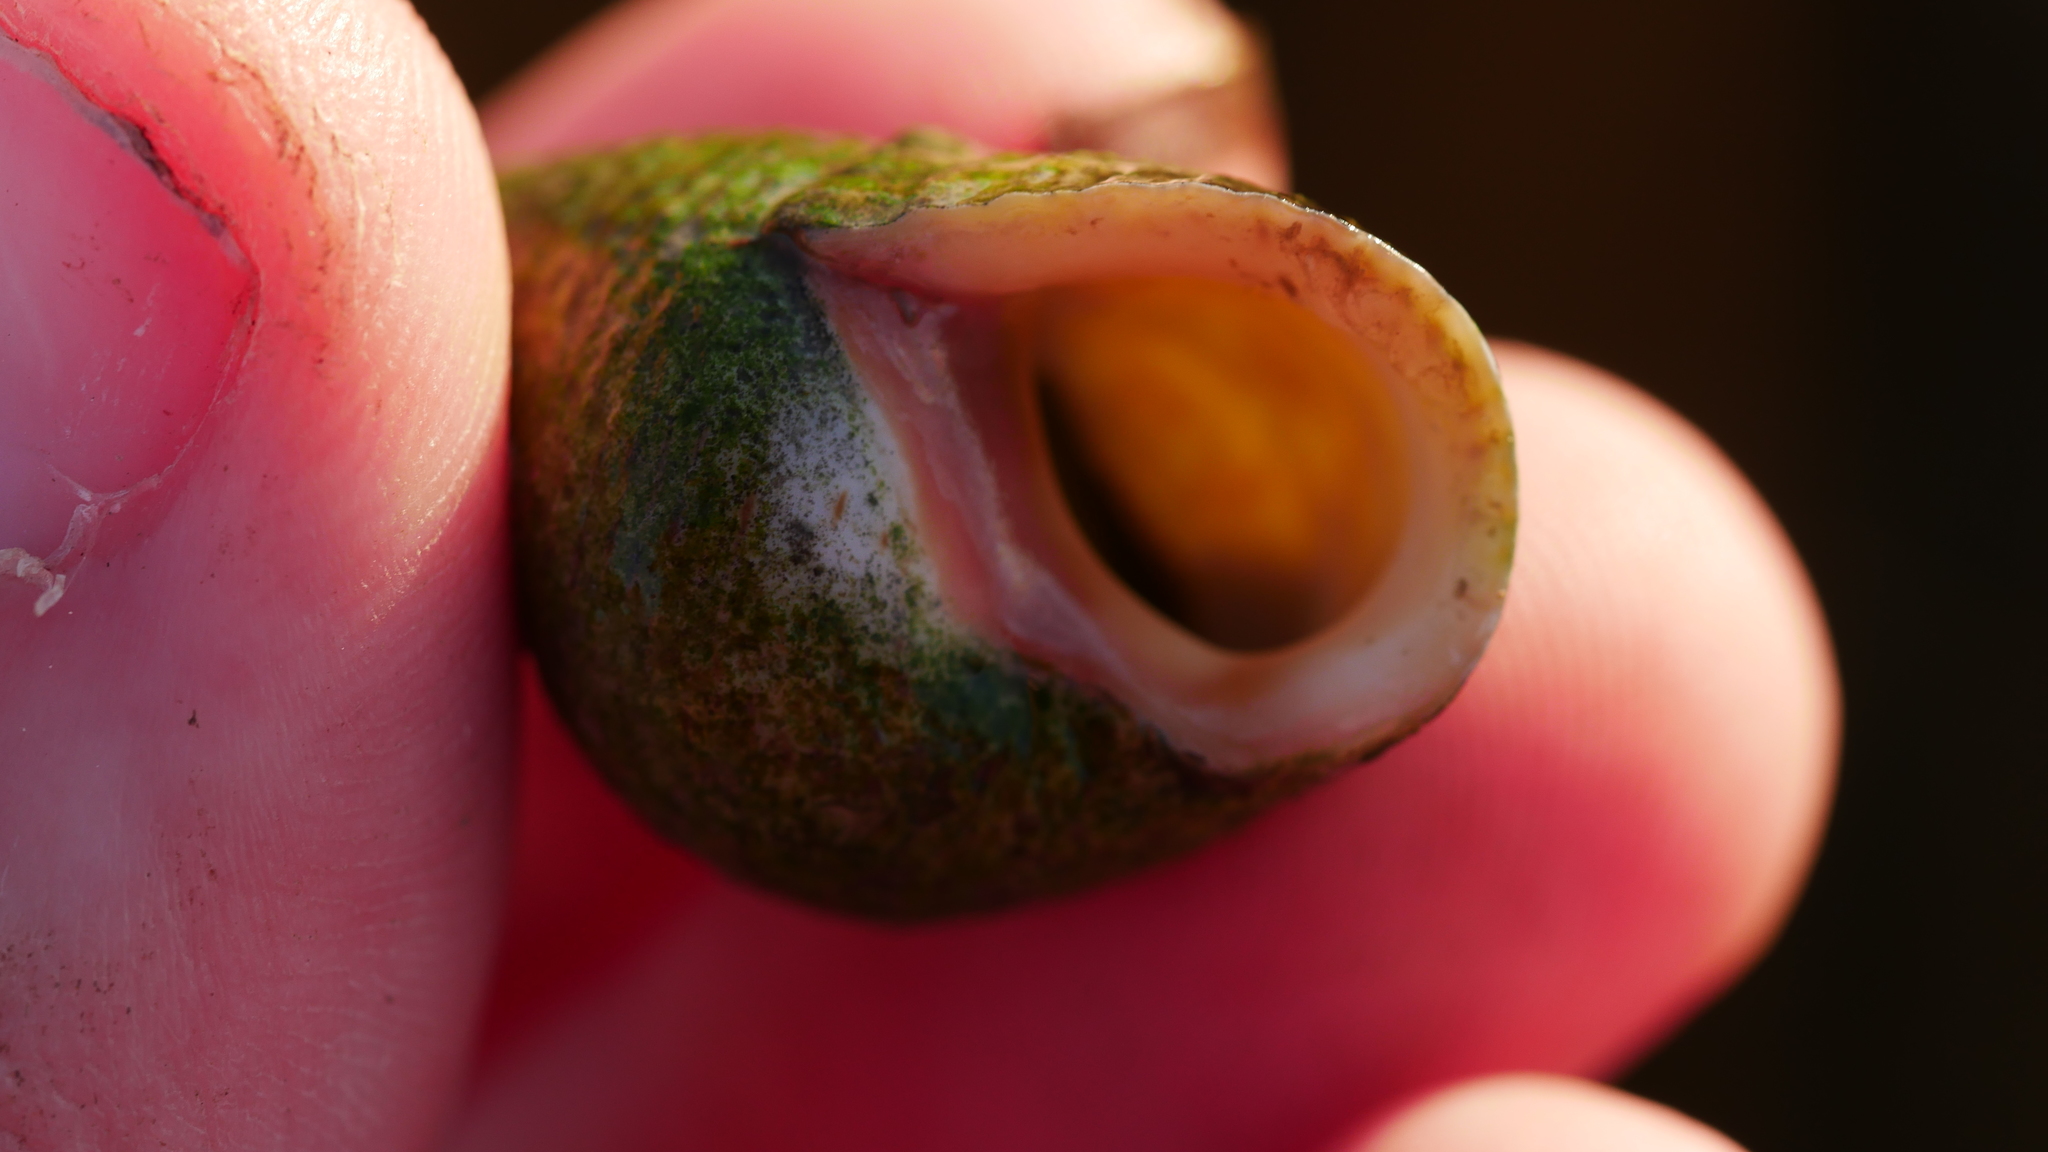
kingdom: Animalia
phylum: Mollusca
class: Gastropoda
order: Littorinimorpha
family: Littorinidae
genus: Littoraria
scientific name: Littoraria irrorata
